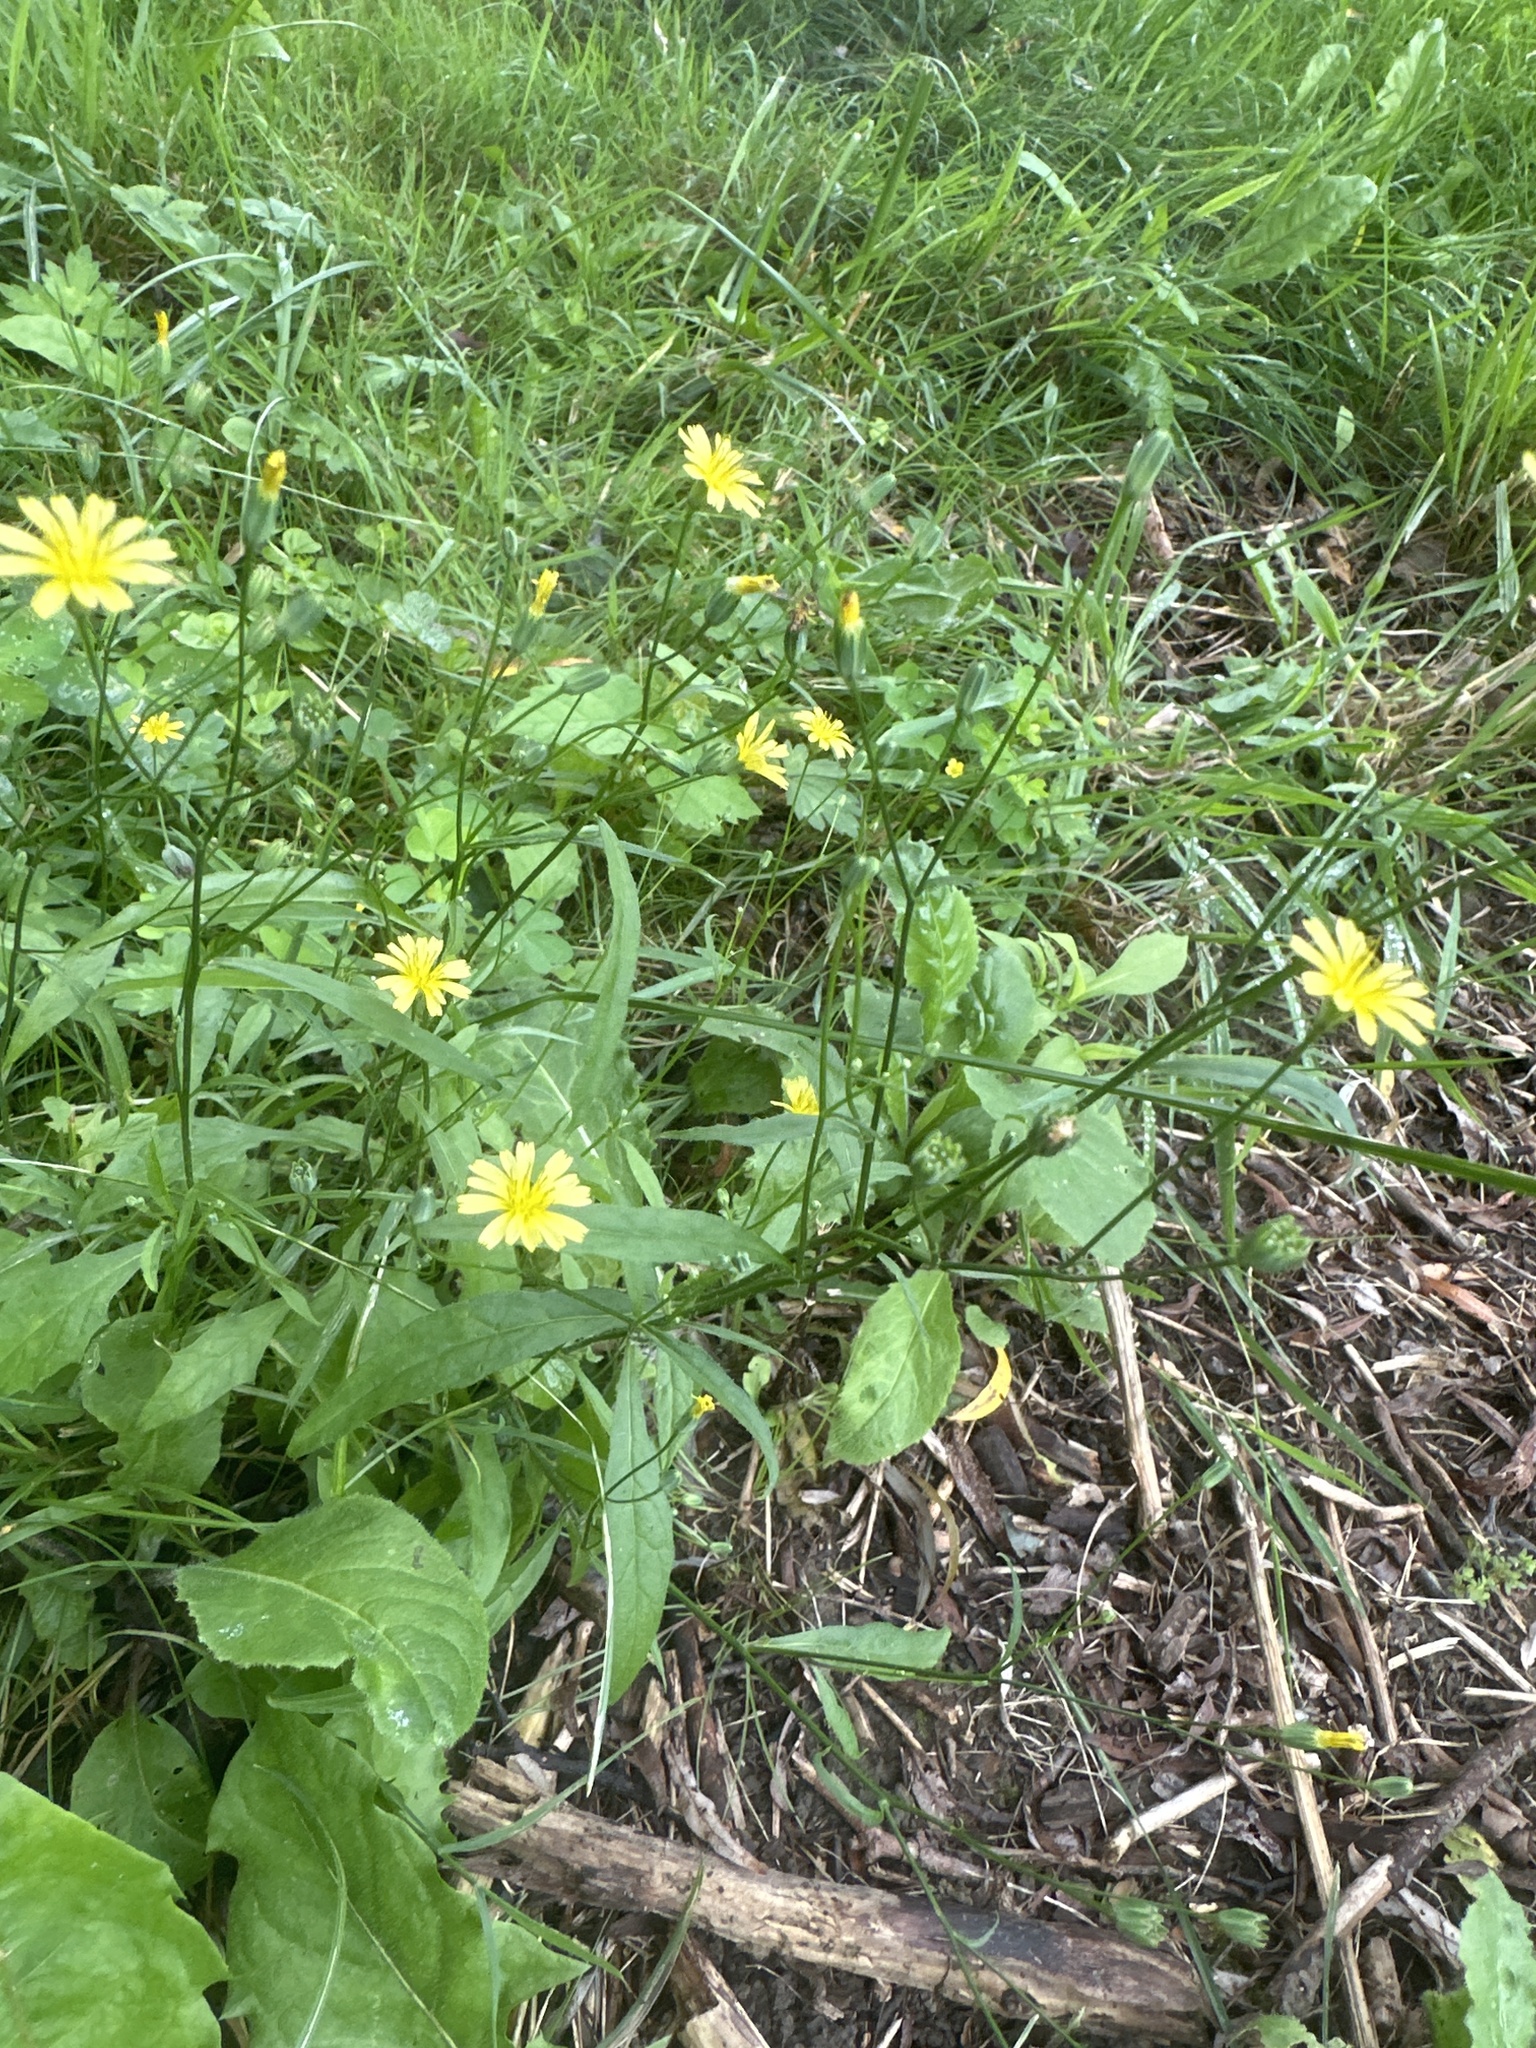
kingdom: Plantae
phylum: Tracheophyta
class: Magnoliopsida
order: Asterales
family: Asteraceae
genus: Lapsana
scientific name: Lapsana communis
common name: Nipplewort
